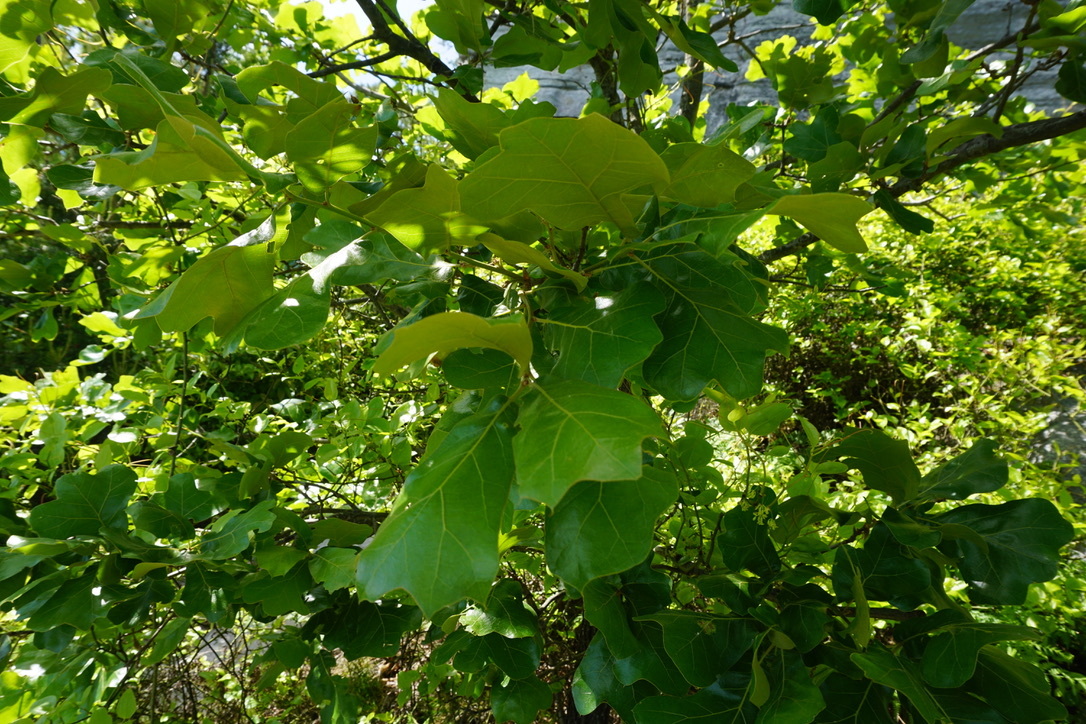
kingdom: Plantae
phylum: Tracheophyta
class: Magnoliopsida
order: Fagales
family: Fagaceae
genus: Quercus
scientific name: Quercus marilandica
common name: Blackjack oak
